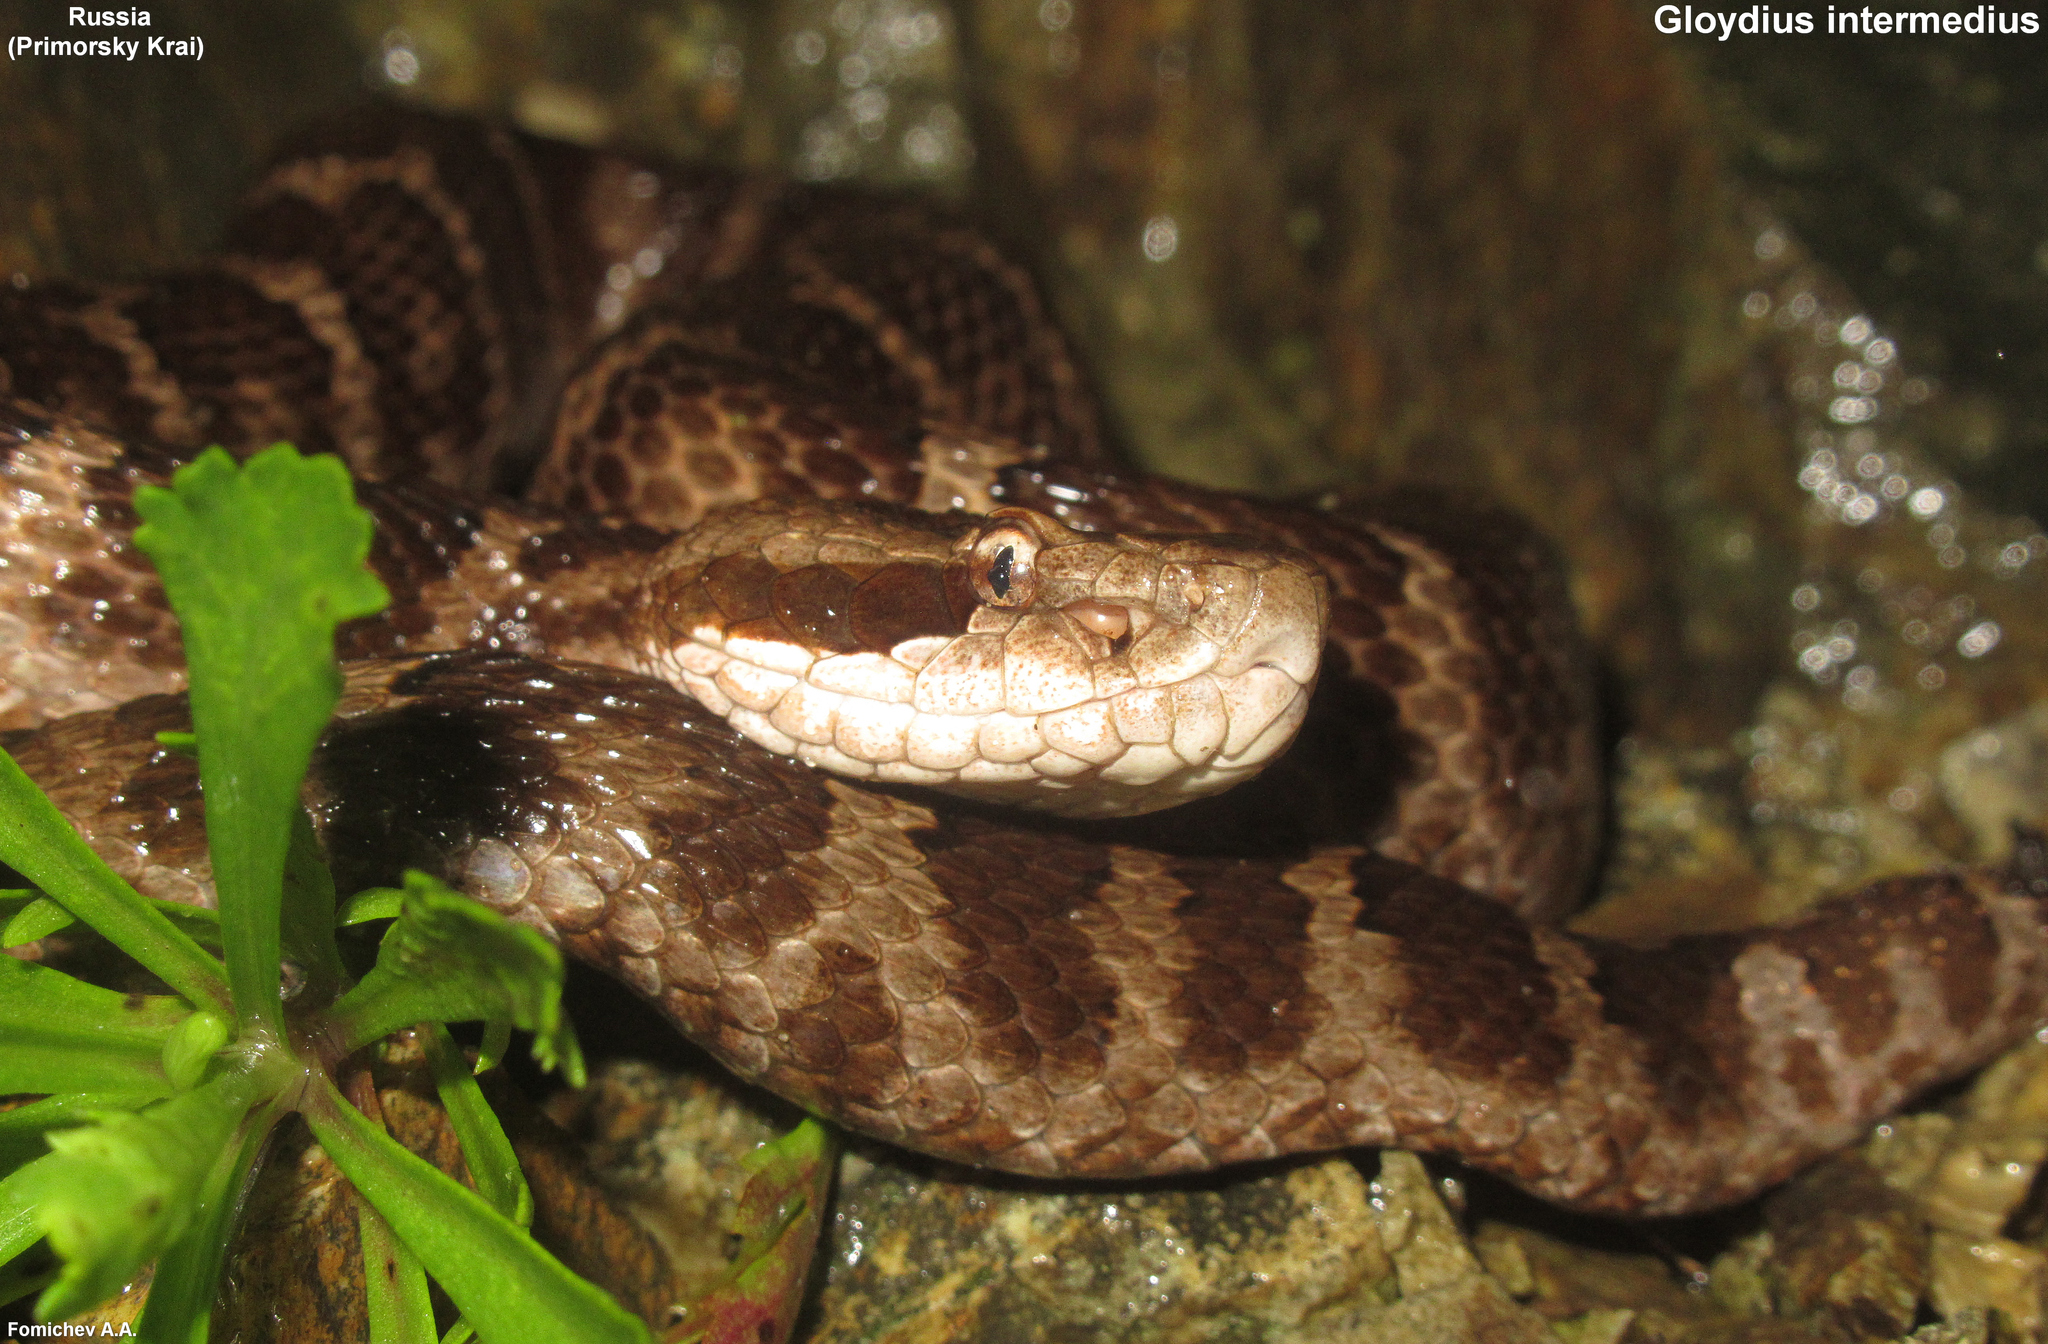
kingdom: Animalia
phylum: Chordata
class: Squamata
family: Viperidae
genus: Gloydius
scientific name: Gloydius intermedius
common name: Central asian pit viper
